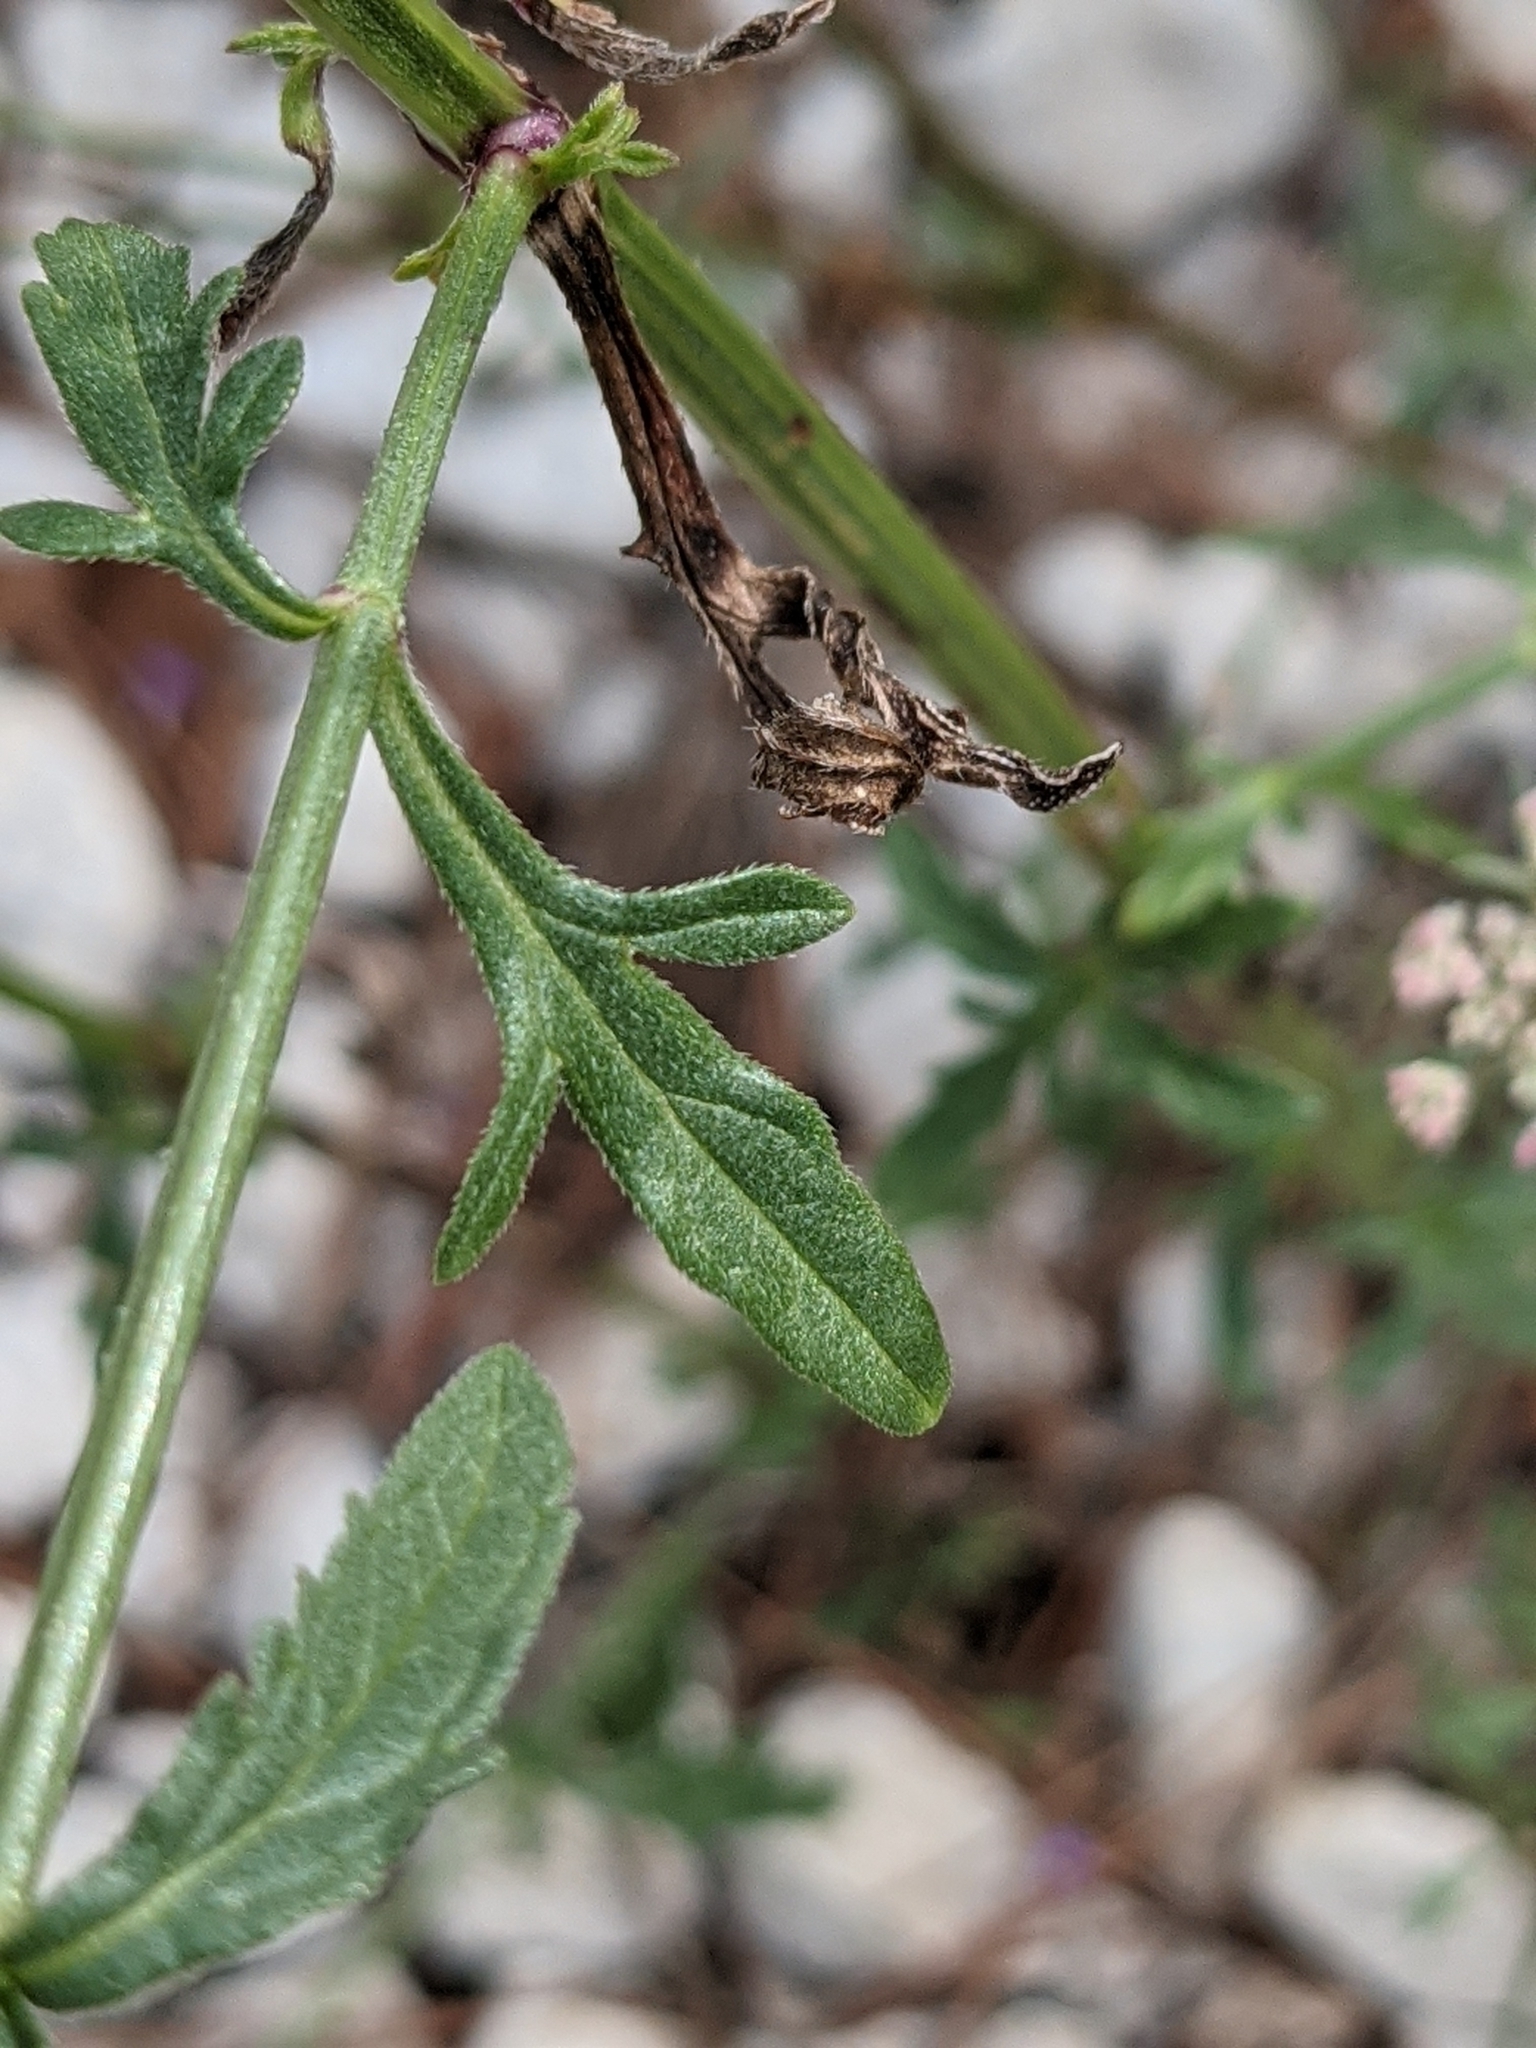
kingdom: Plantae
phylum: Tracheophyta
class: Magnoliopsida
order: Lamiales
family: Verbenaceae
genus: Verbena
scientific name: Verbena officinalis
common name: Vervain
